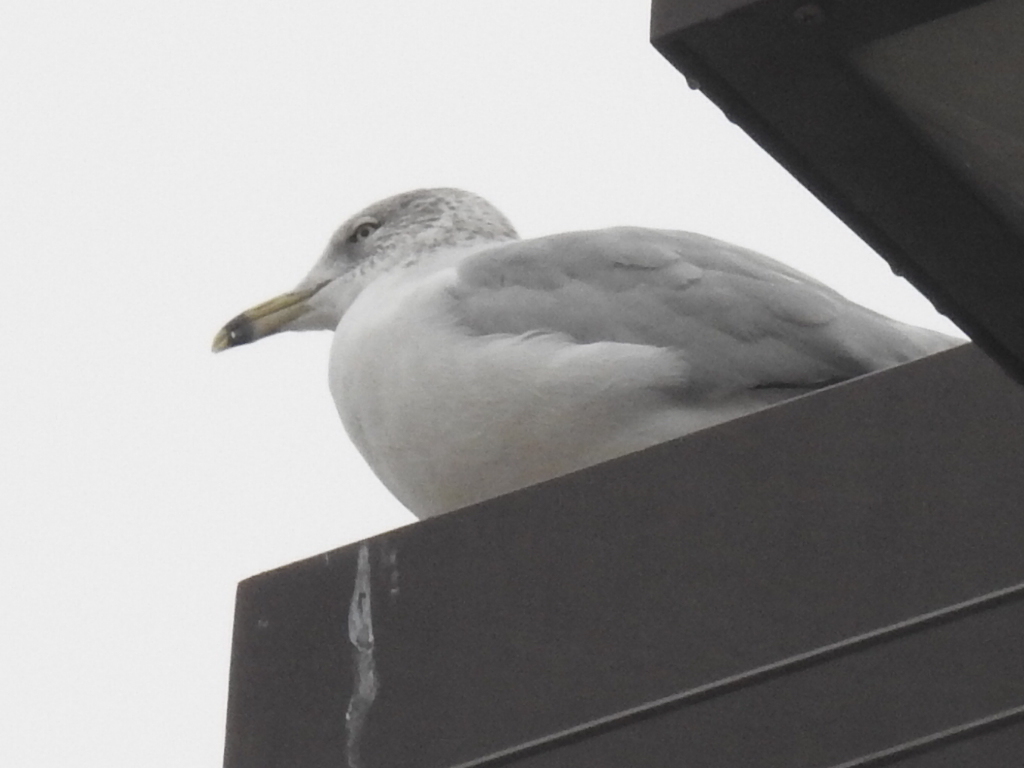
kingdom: Animalia
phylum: Chordata
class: Aves
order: Charadriiformes
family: Laridae
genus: Larus
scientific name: Larus delawarensis
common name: Ring-billed gull
